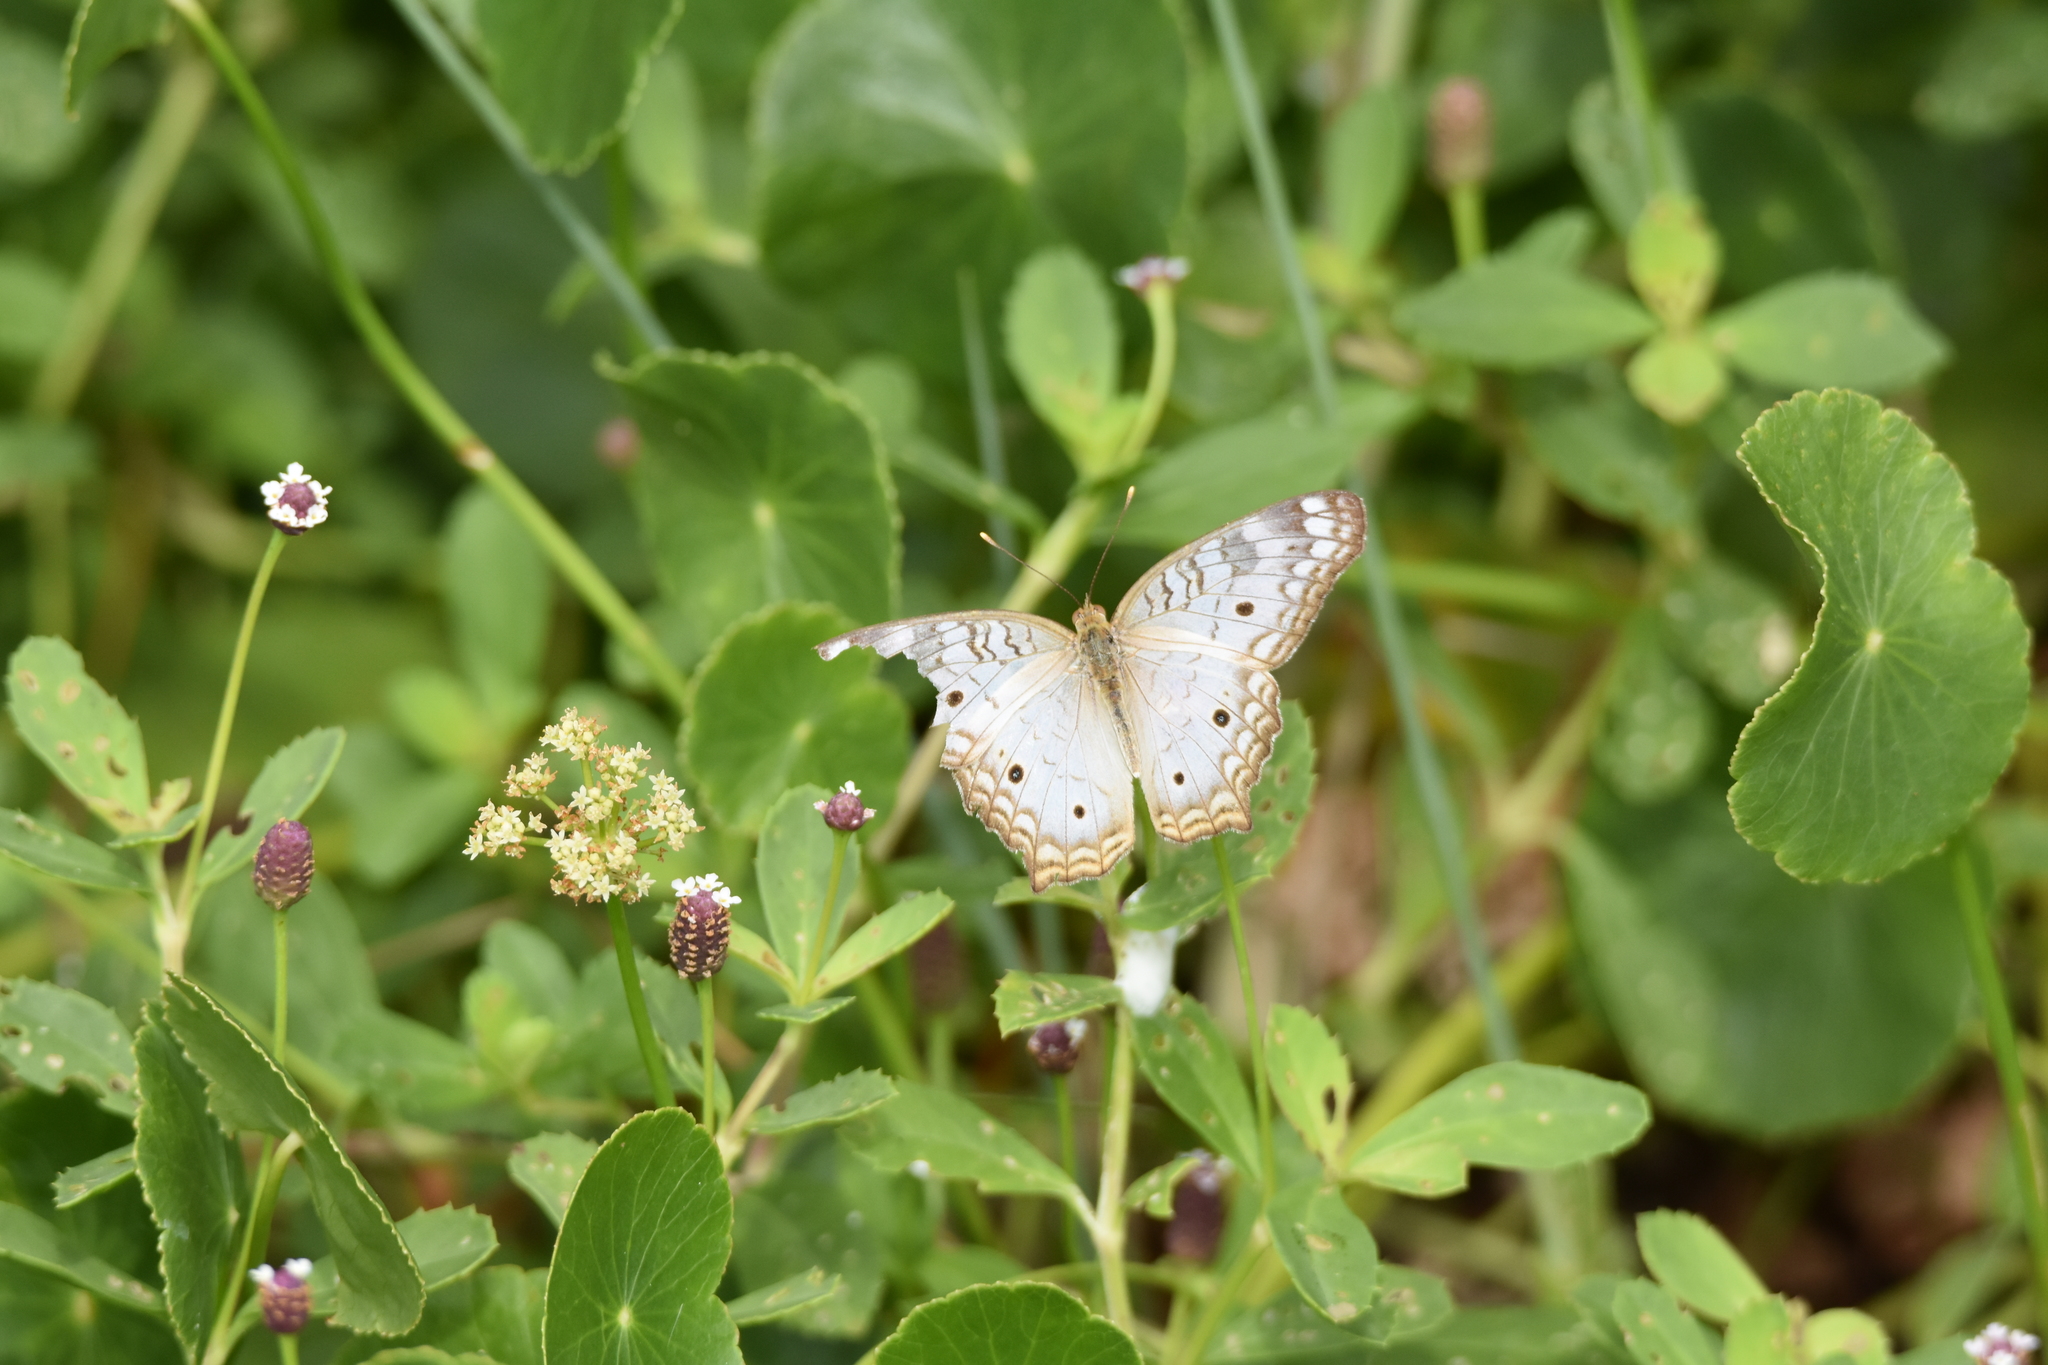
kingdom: Animalia
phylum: Arthropoda
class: Insecta
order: Lepidoptera
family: Nymphalidae
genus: Anartia
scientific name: Anartia jatrophae
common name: White peacock
